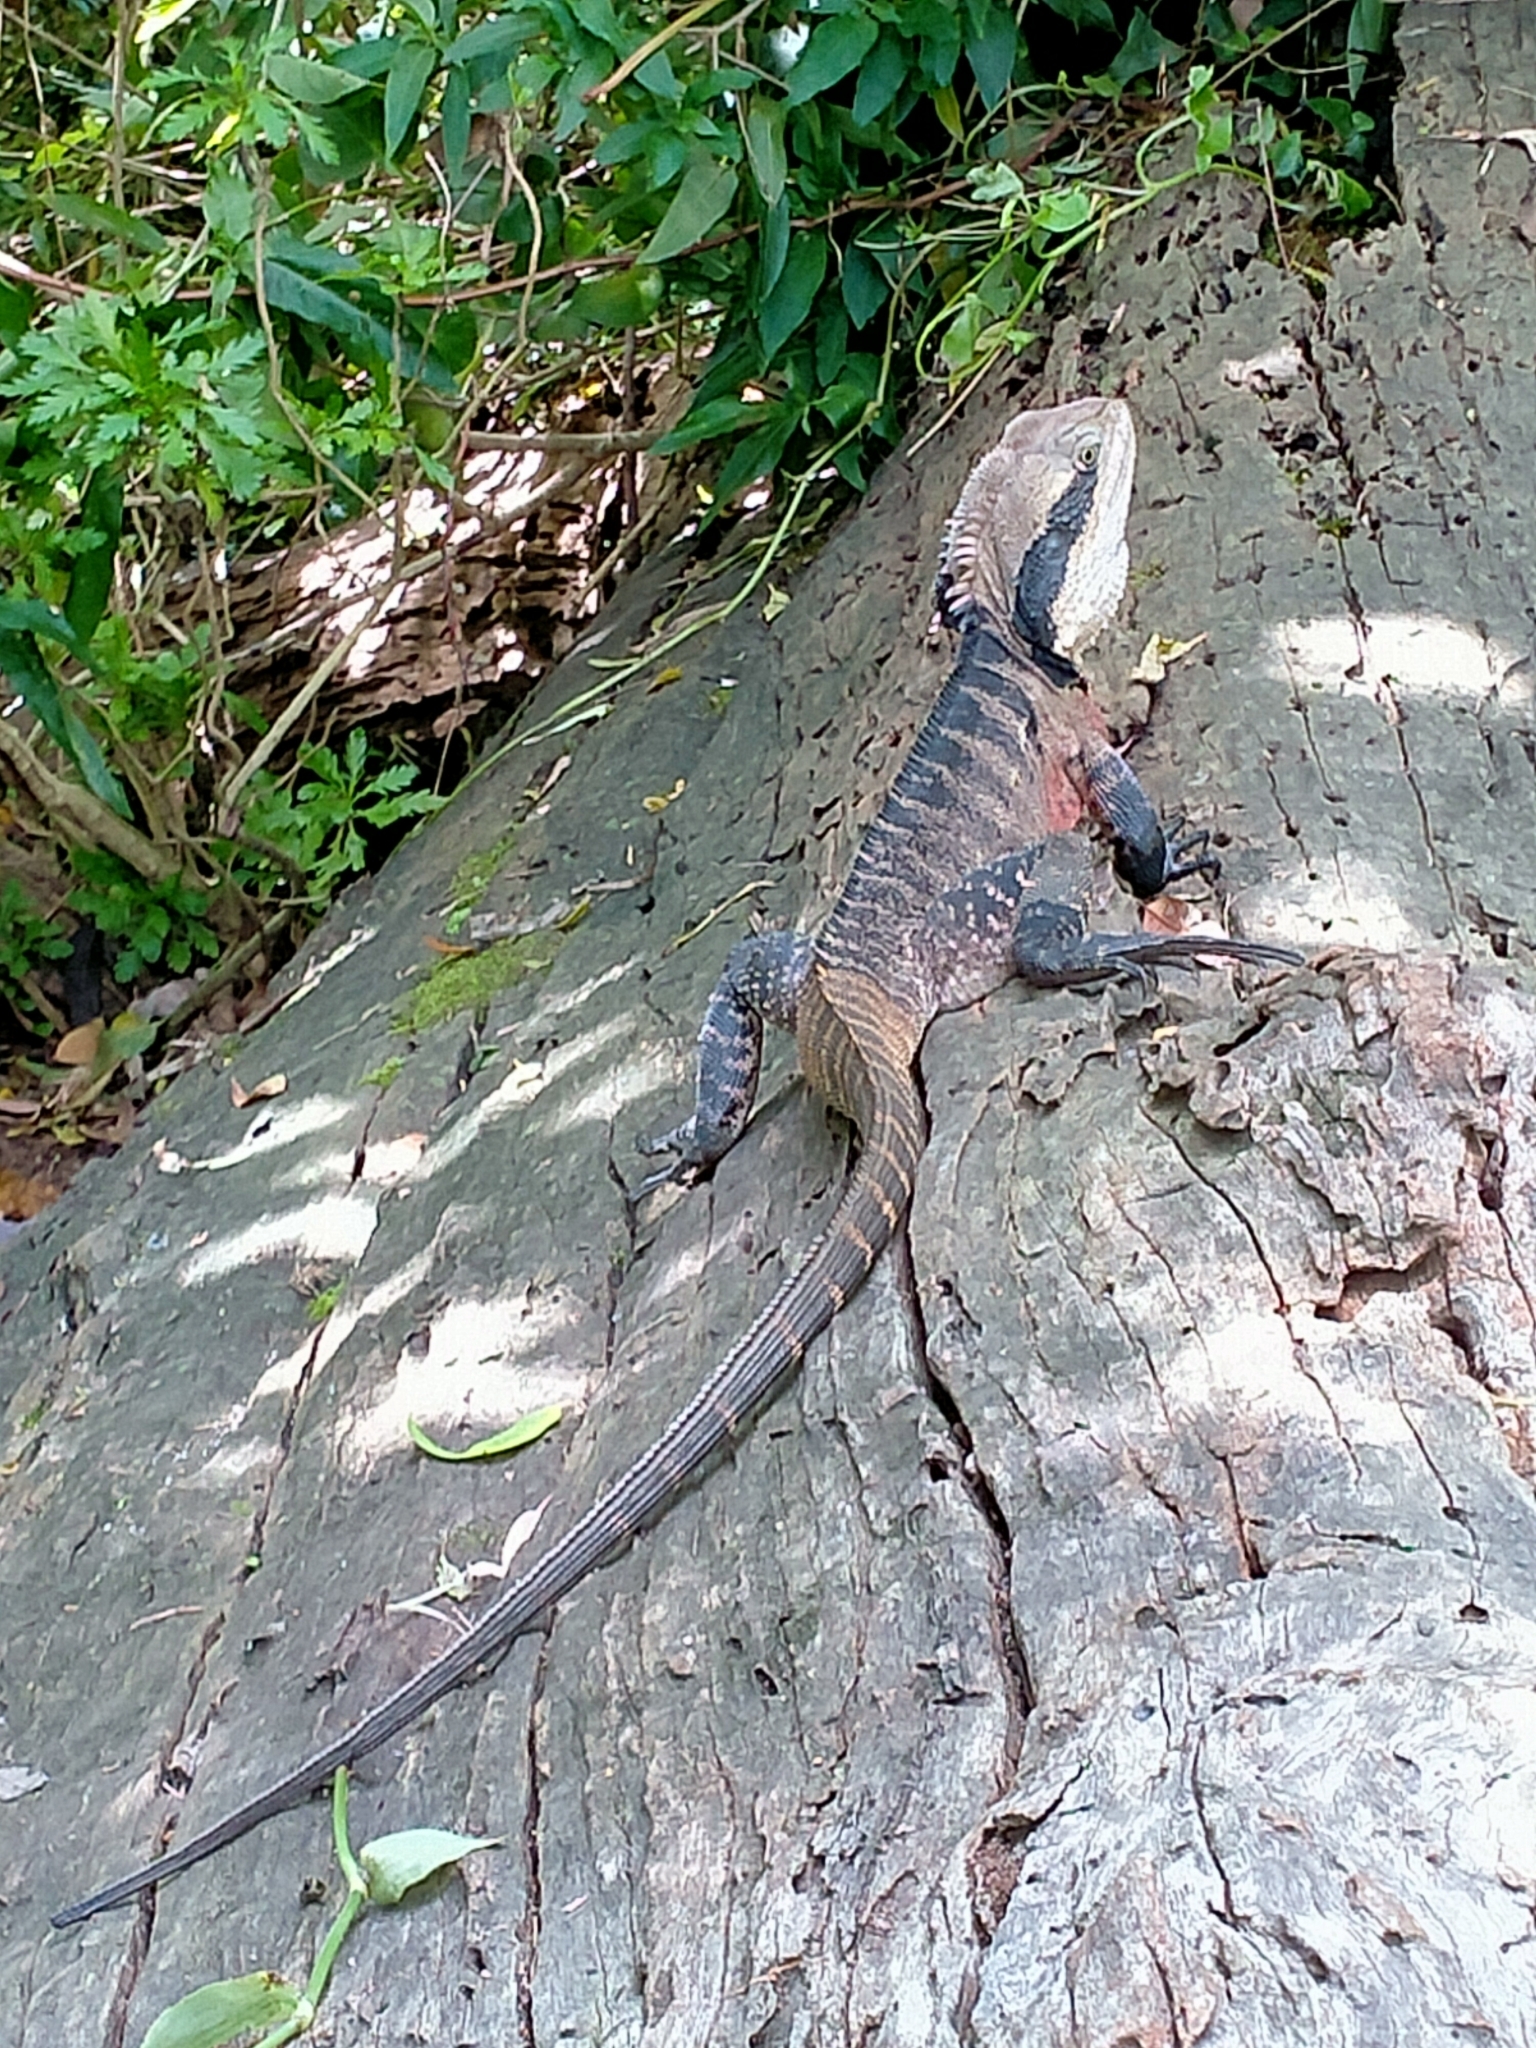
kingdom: Animalia
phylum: Chordata
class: Squamata
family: Agamidae
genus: Intellagama
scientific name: Intellagama lesueurii
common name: Eastern water dragon
